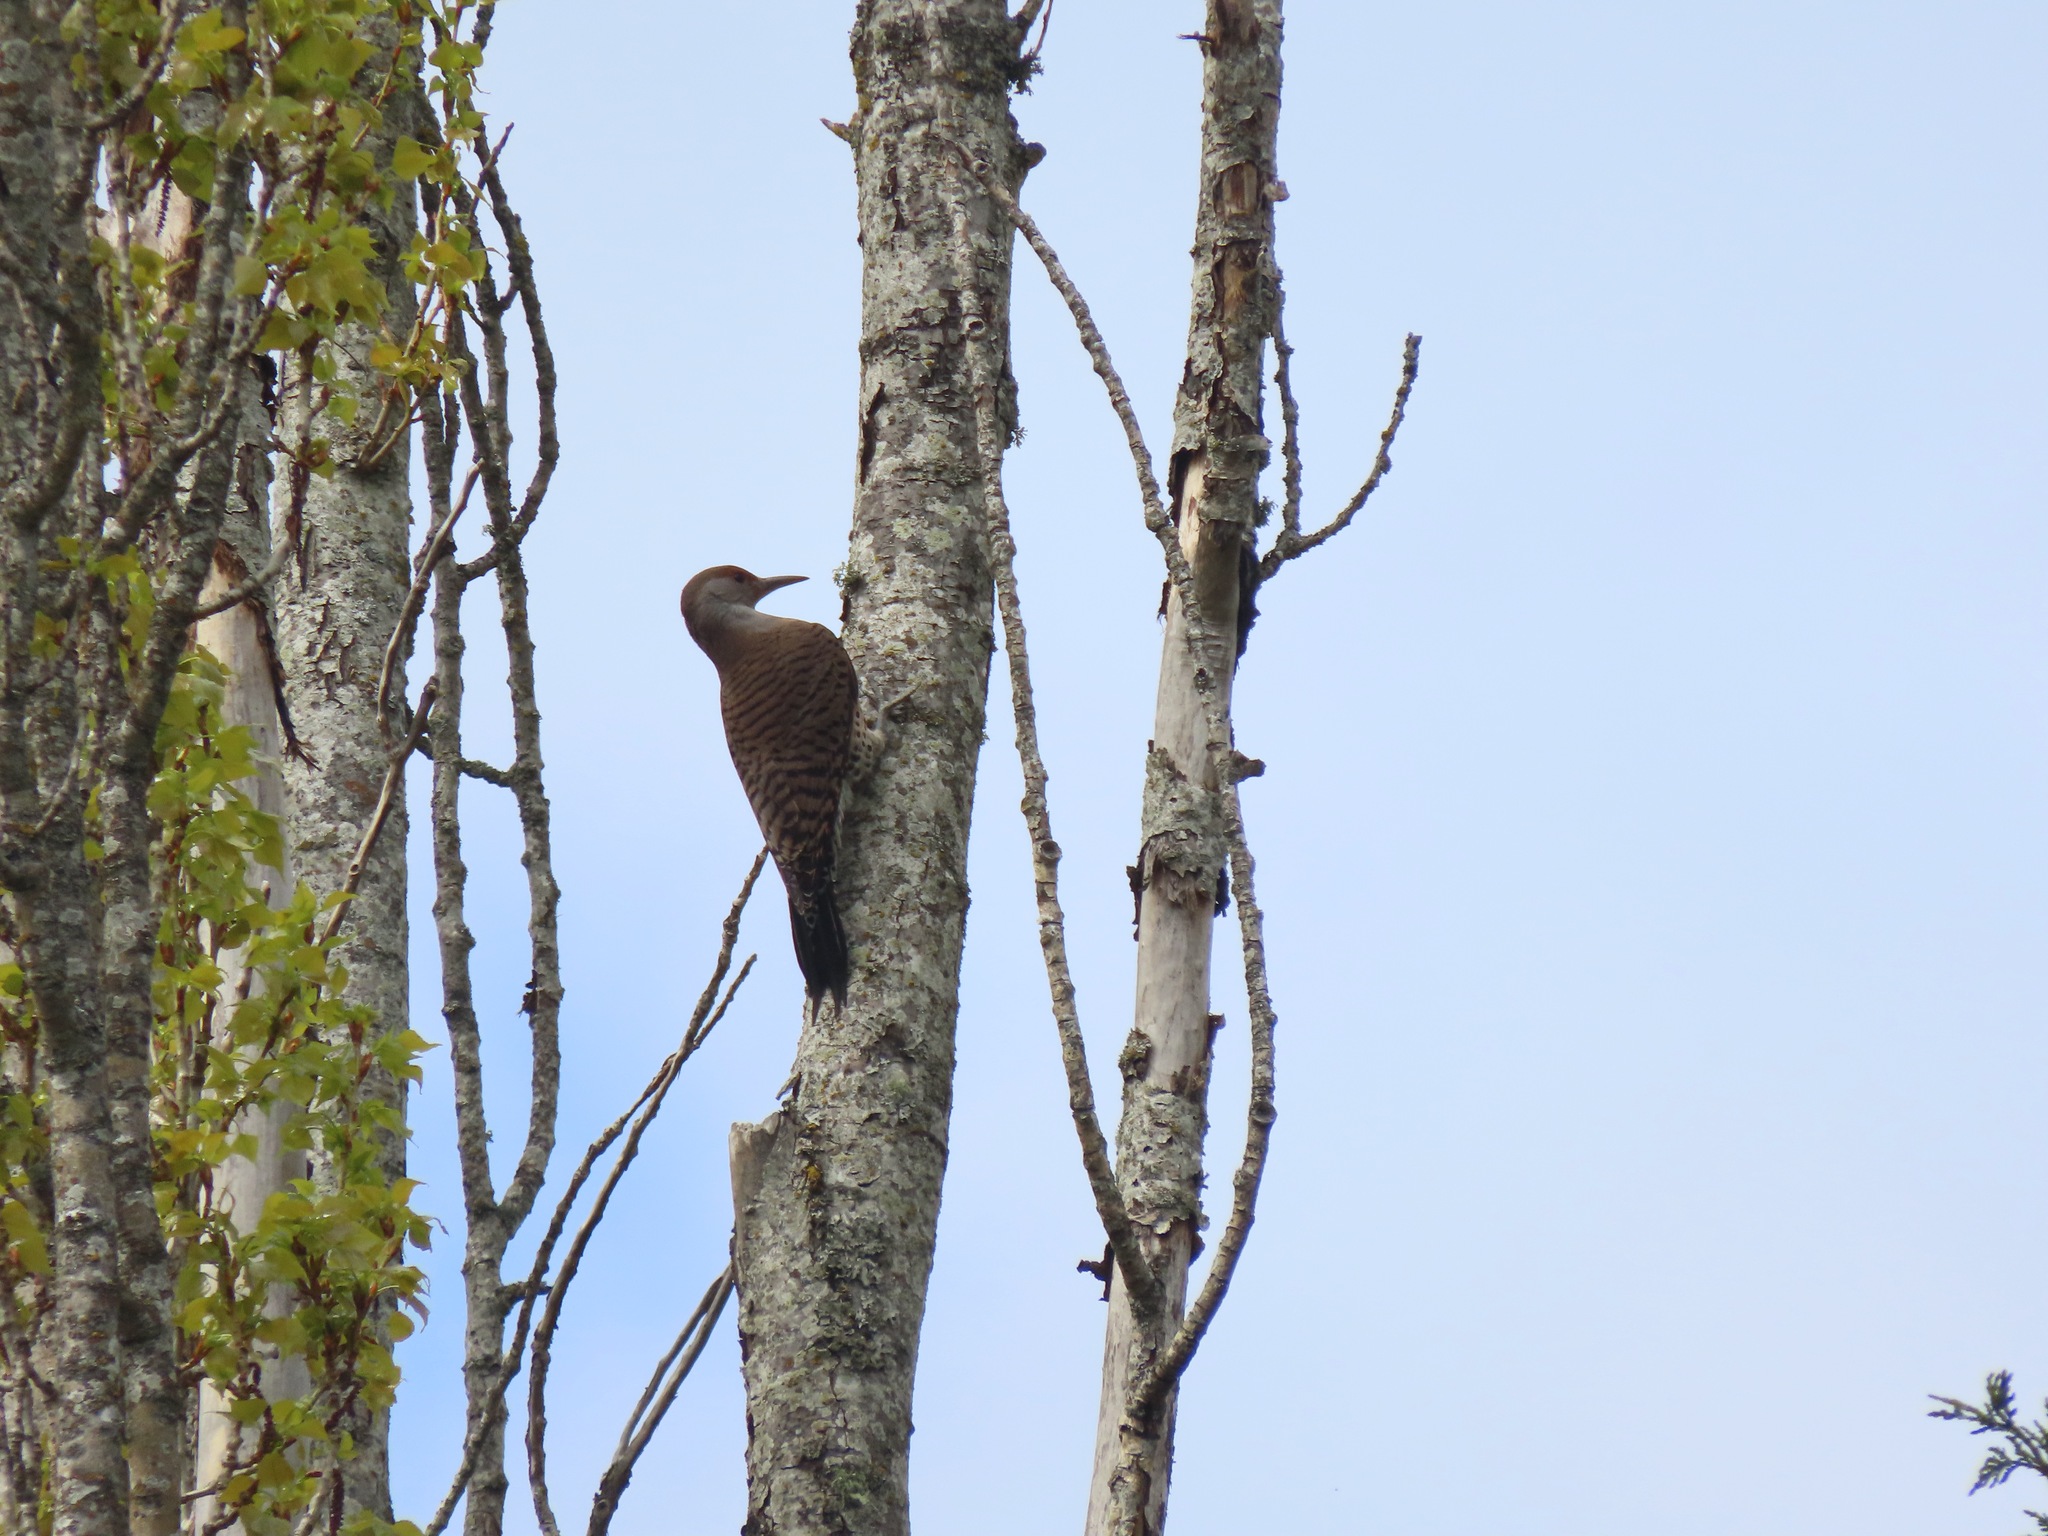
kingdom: Animalia
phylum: Chordata
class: Aves
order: Piciformes
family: Picidae
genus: Colaptes
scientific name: Colaptes auratus
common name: Northern flicker
